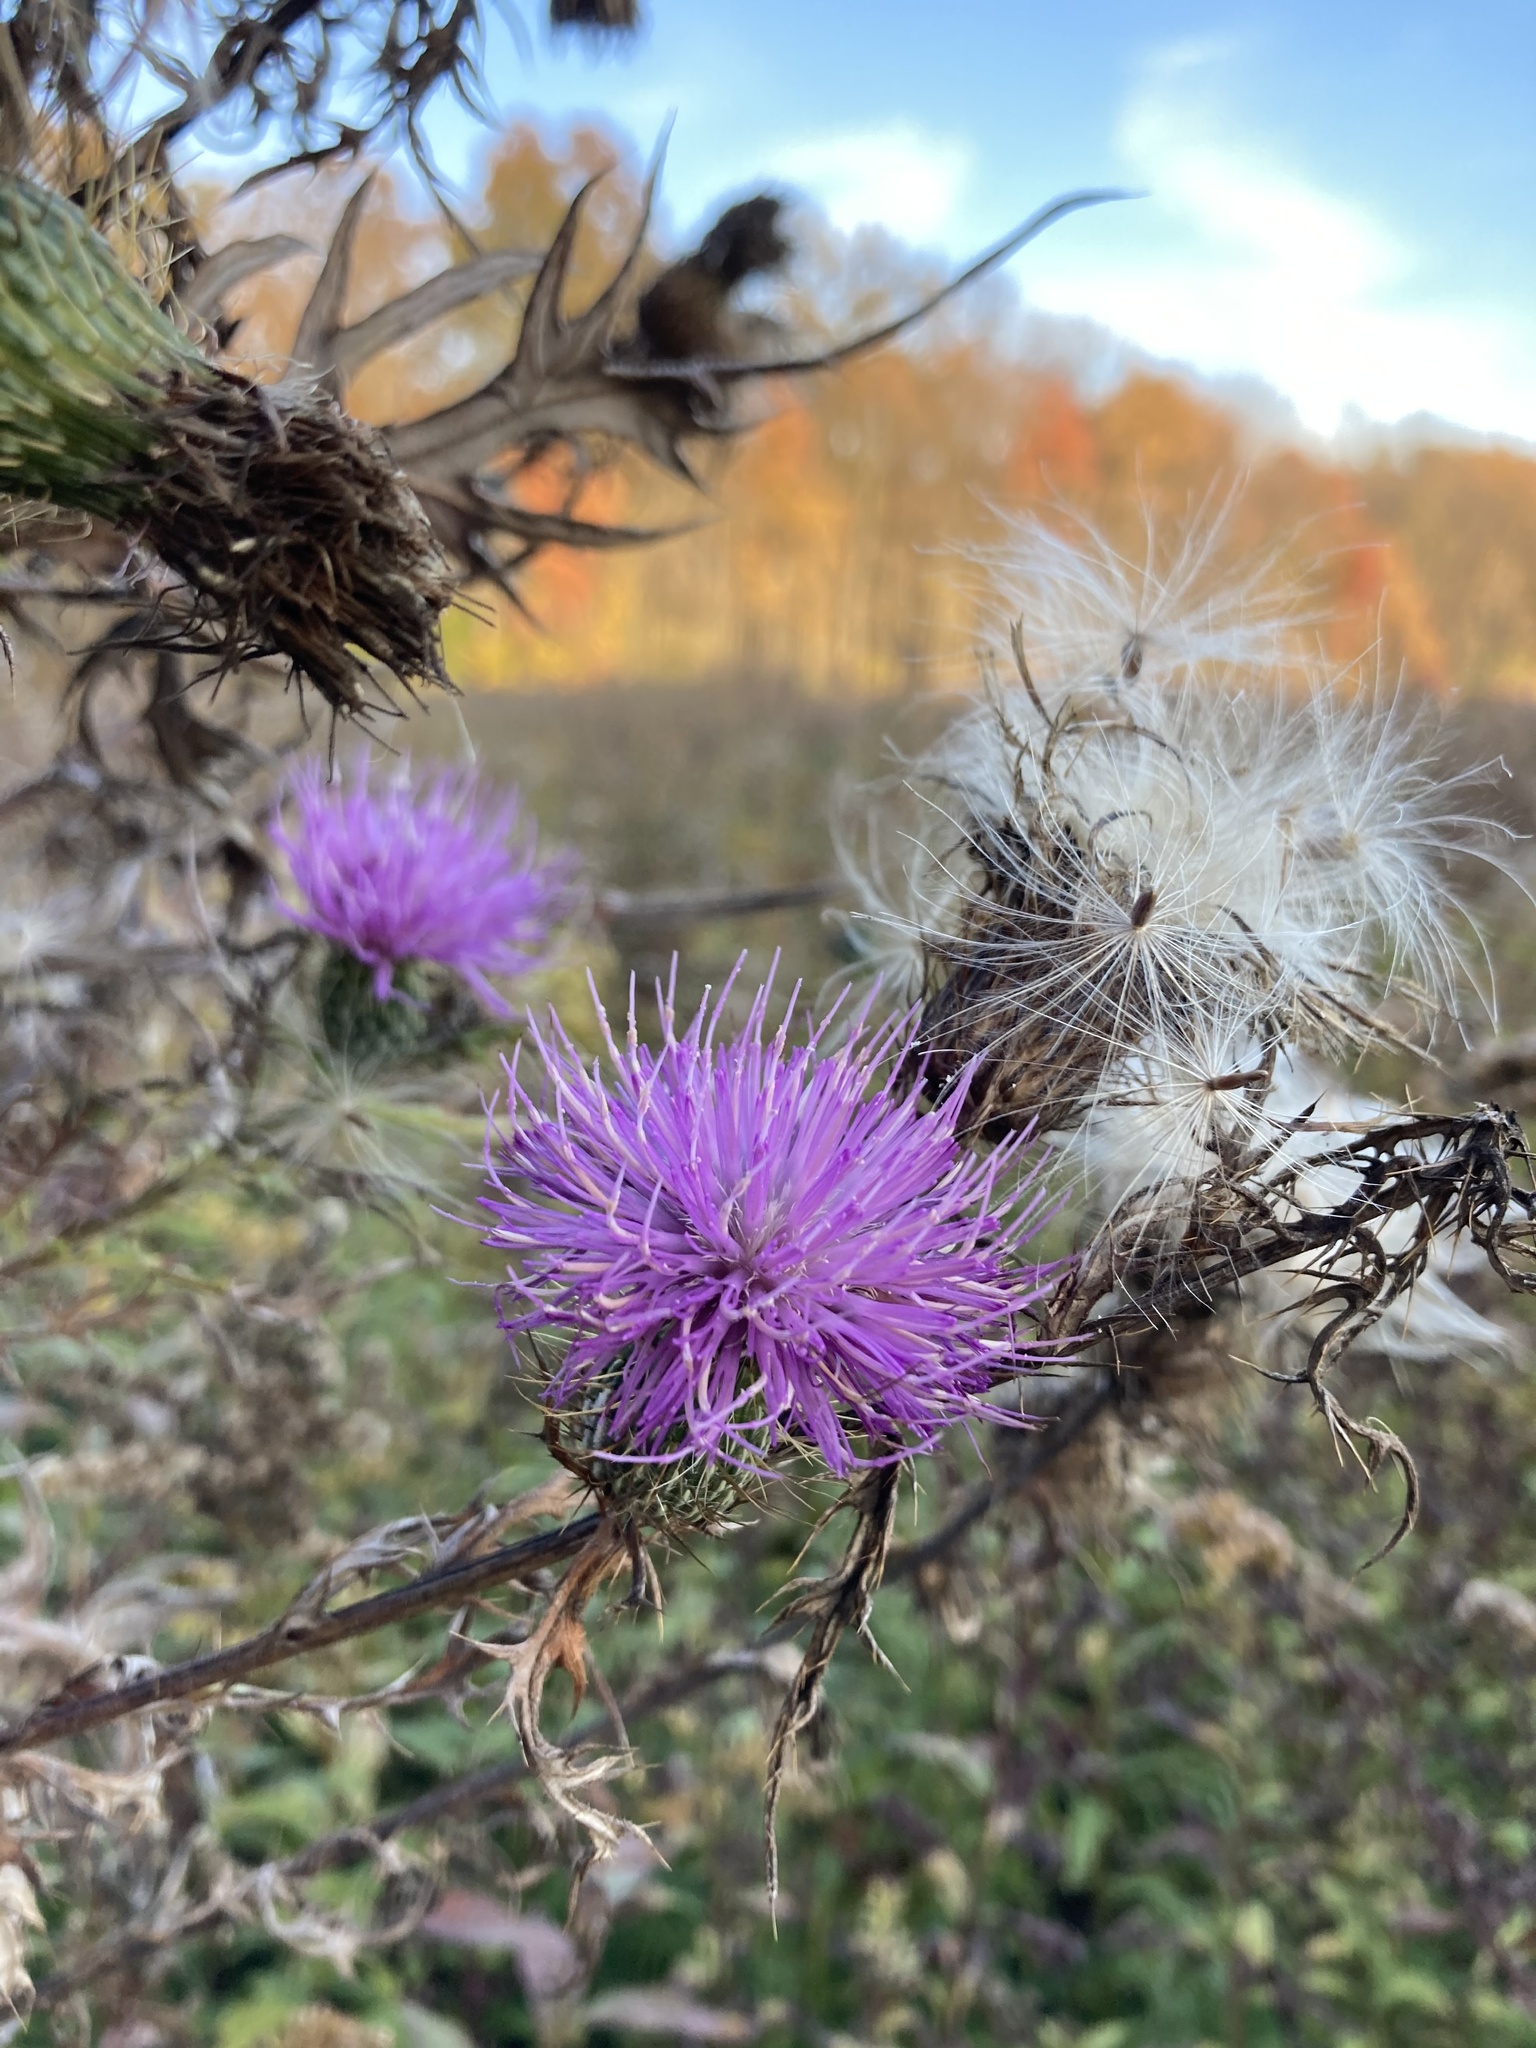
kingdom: Plantae
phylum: Tracheophyta
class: Magnoliopsida
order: Asterales
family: Asteraceae
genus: Cirsium
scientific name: Cirsium discolor
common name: Field thistle
